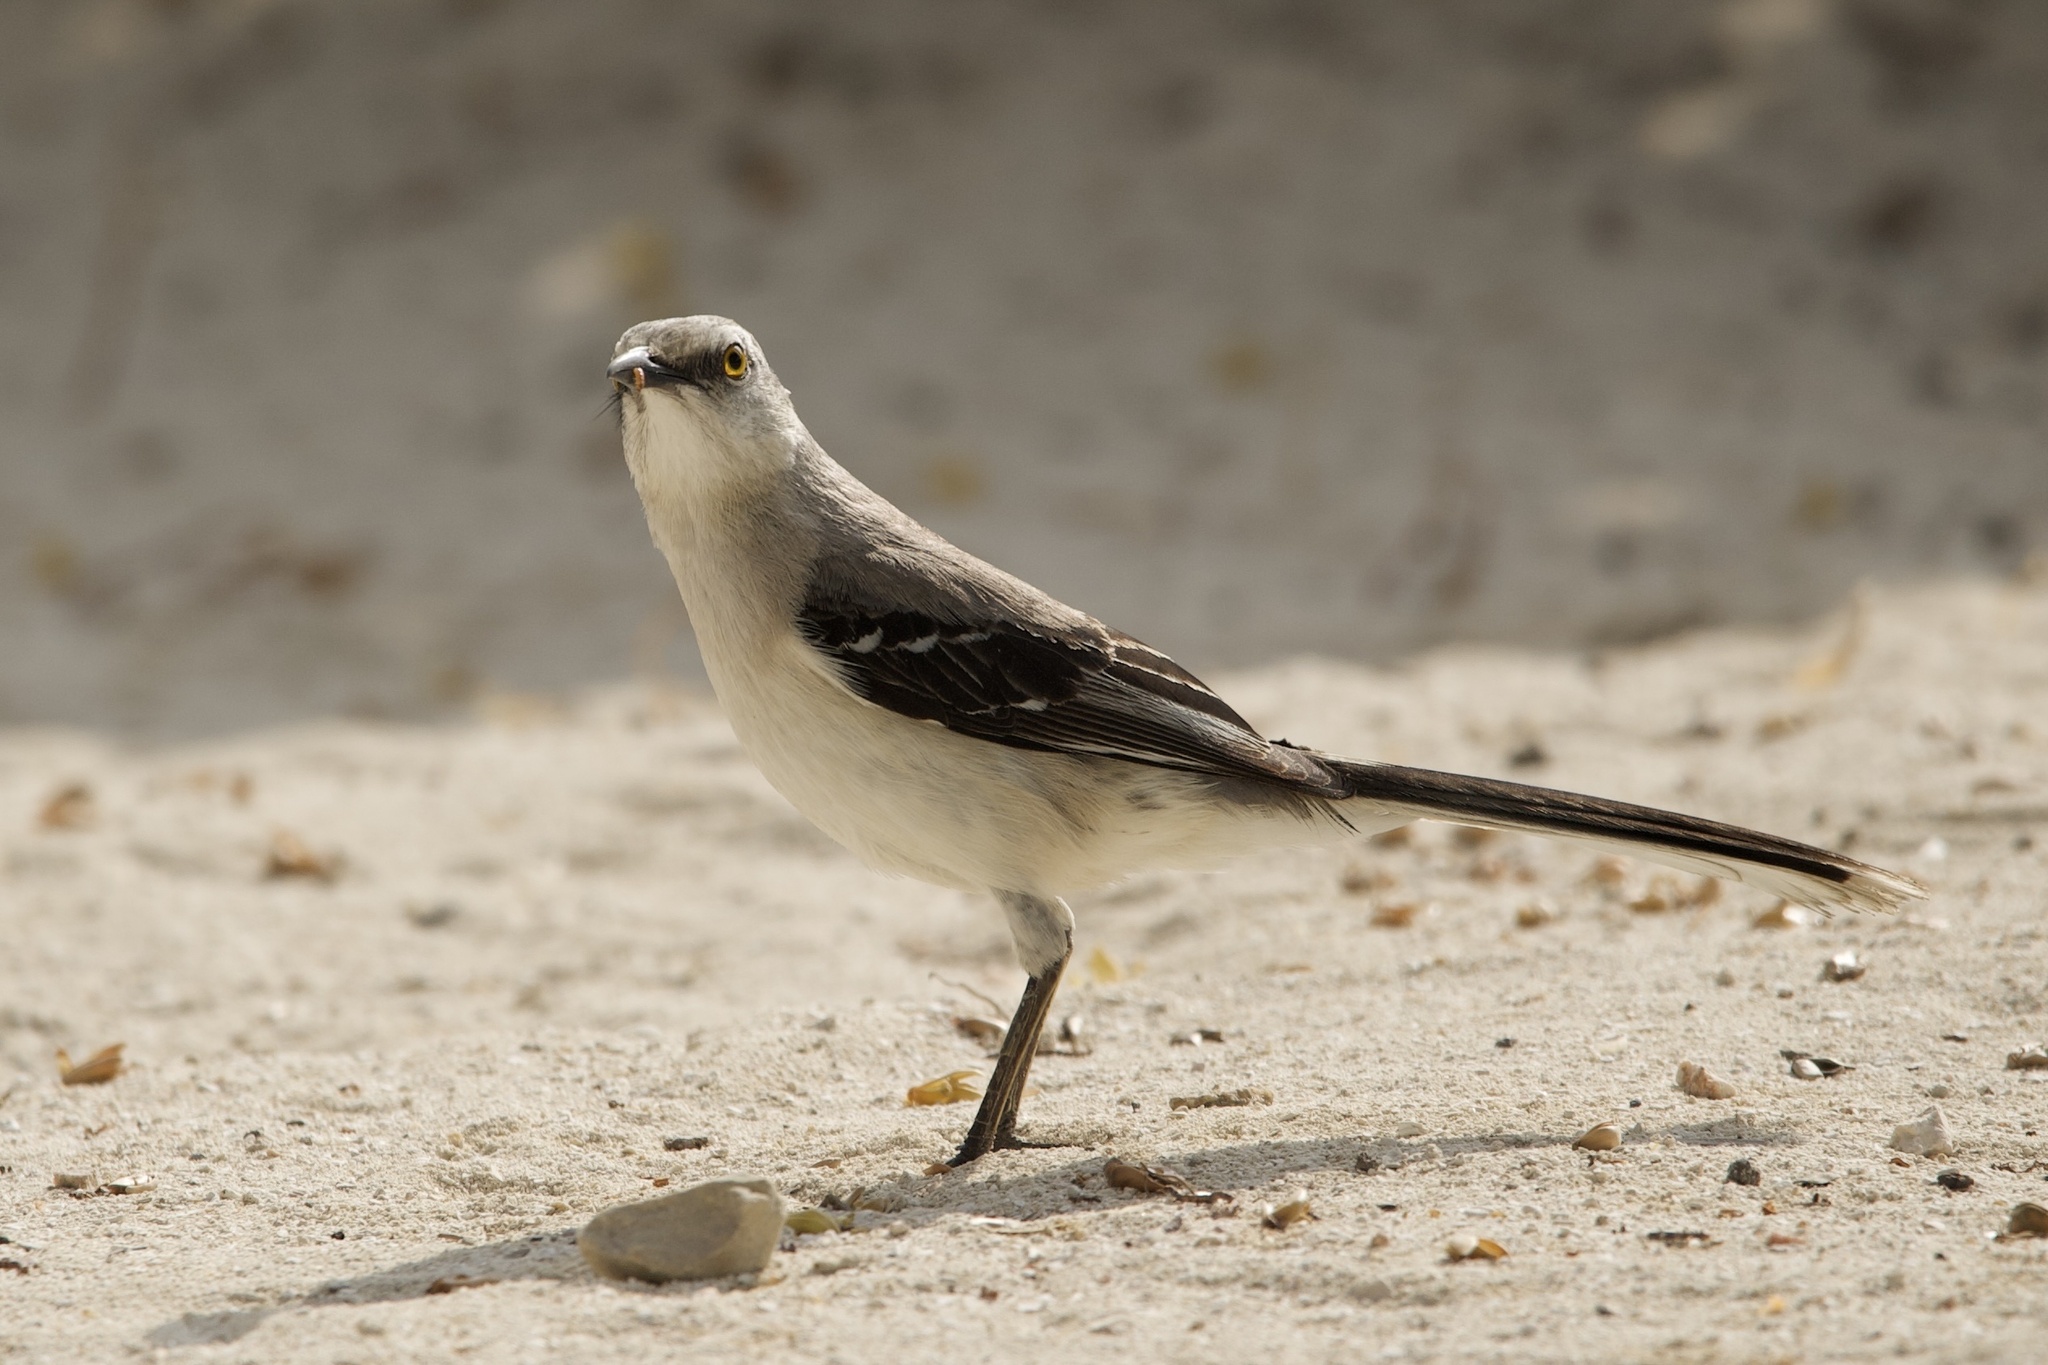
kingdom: Animalia
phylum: Chordata
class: Aves
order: Passeriformes
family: Mimidae
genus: Mimus
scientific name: Mimus gilvus
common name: Tropical mockingbird
